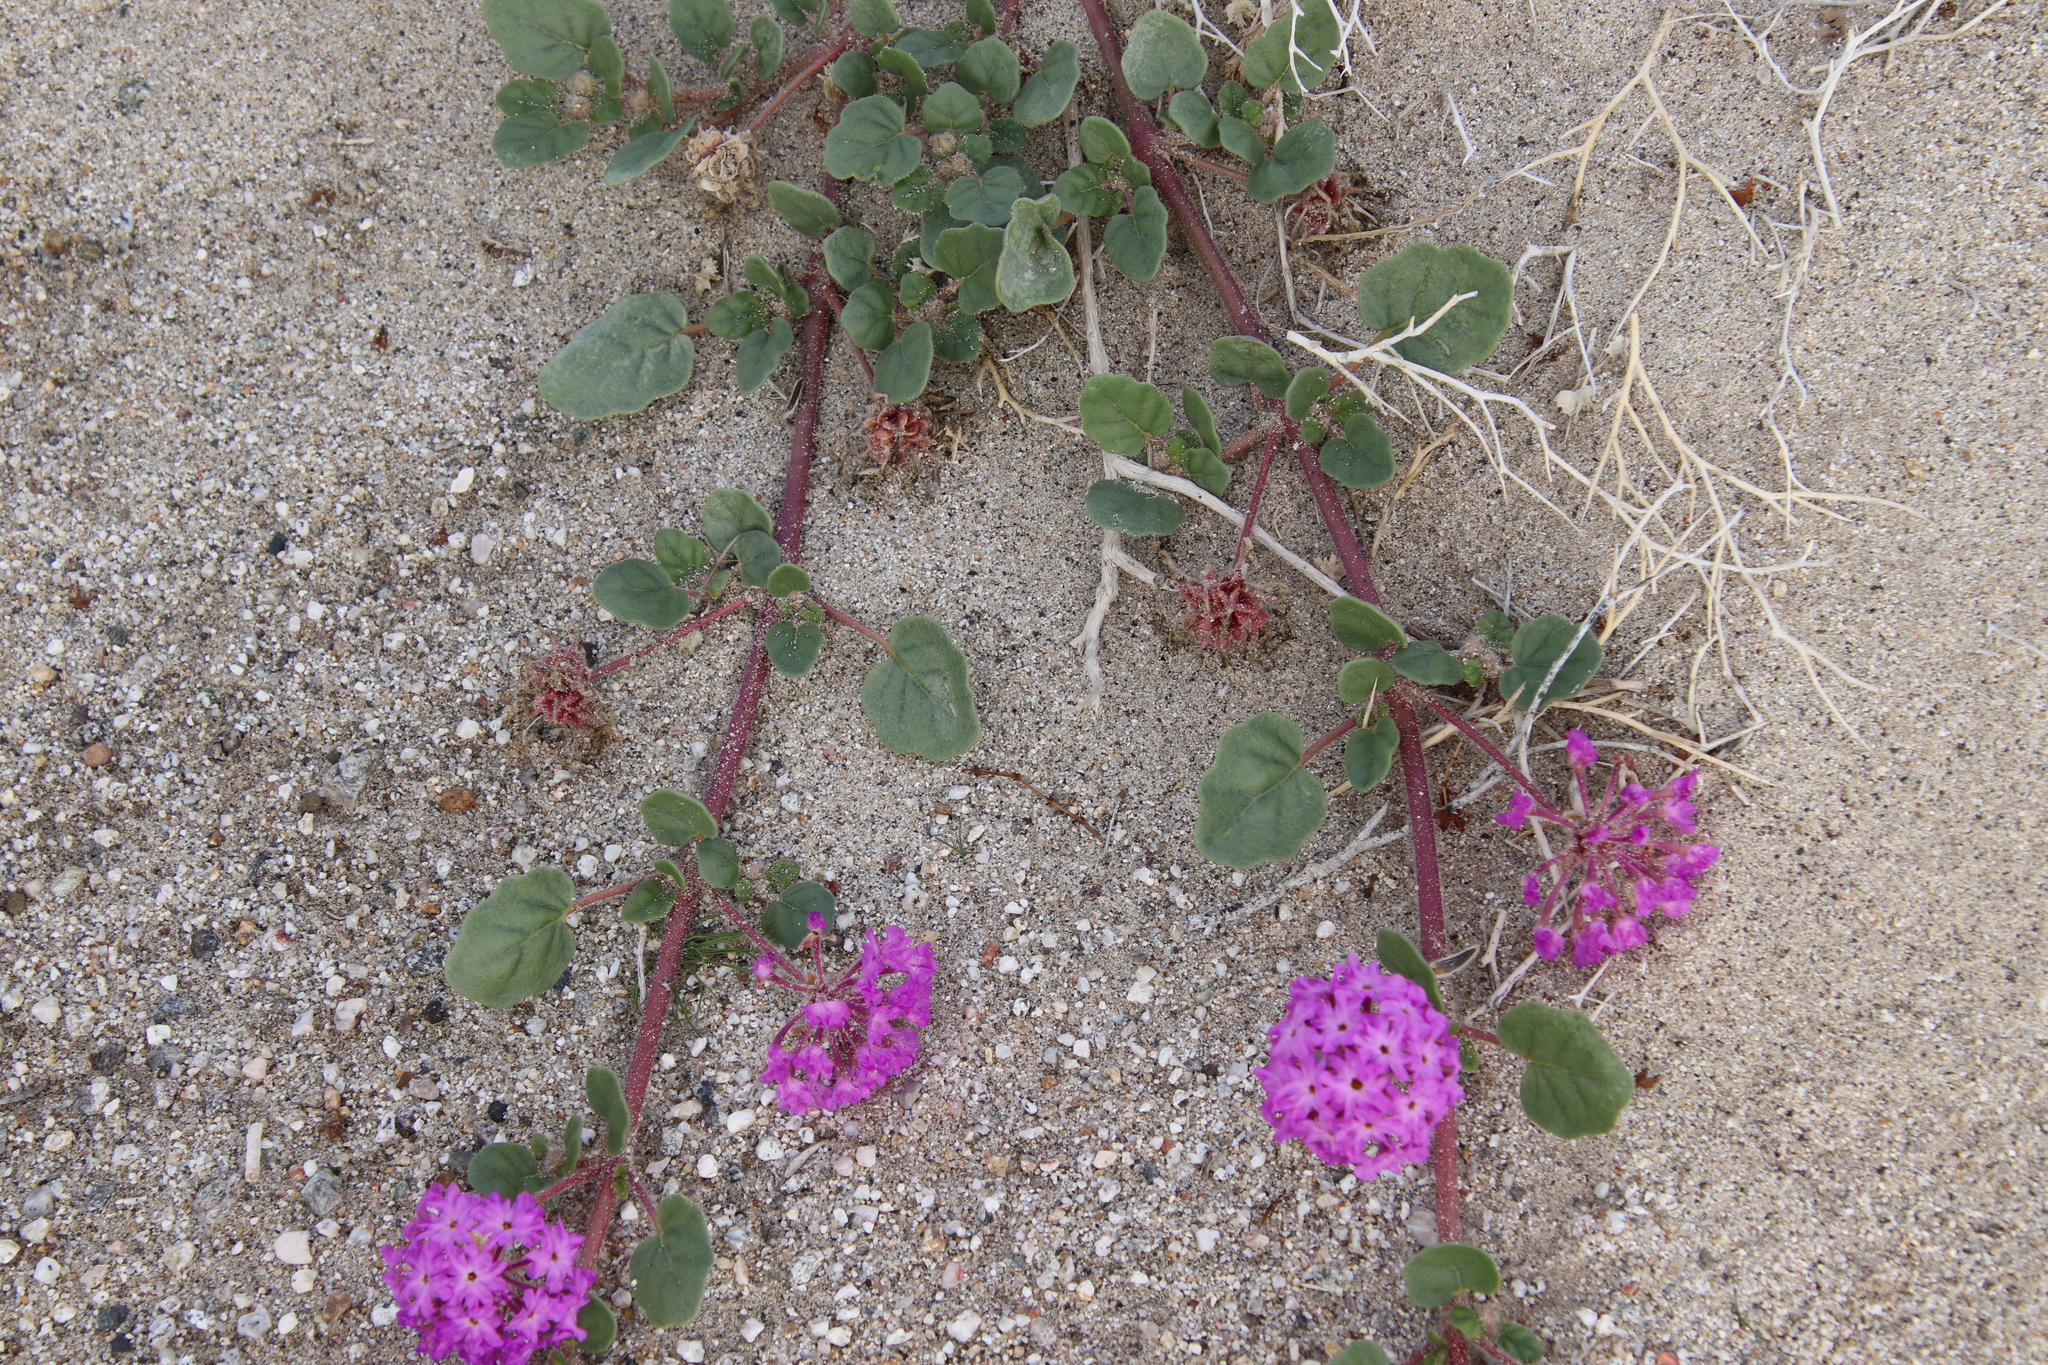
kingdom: Plantae
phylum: Tracheophyta
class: Magnoliopsida
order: Caryophyllales
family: Nyctaginaceae
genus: Abronia
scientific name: Abronia villosa
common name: Desert sand-verbena
